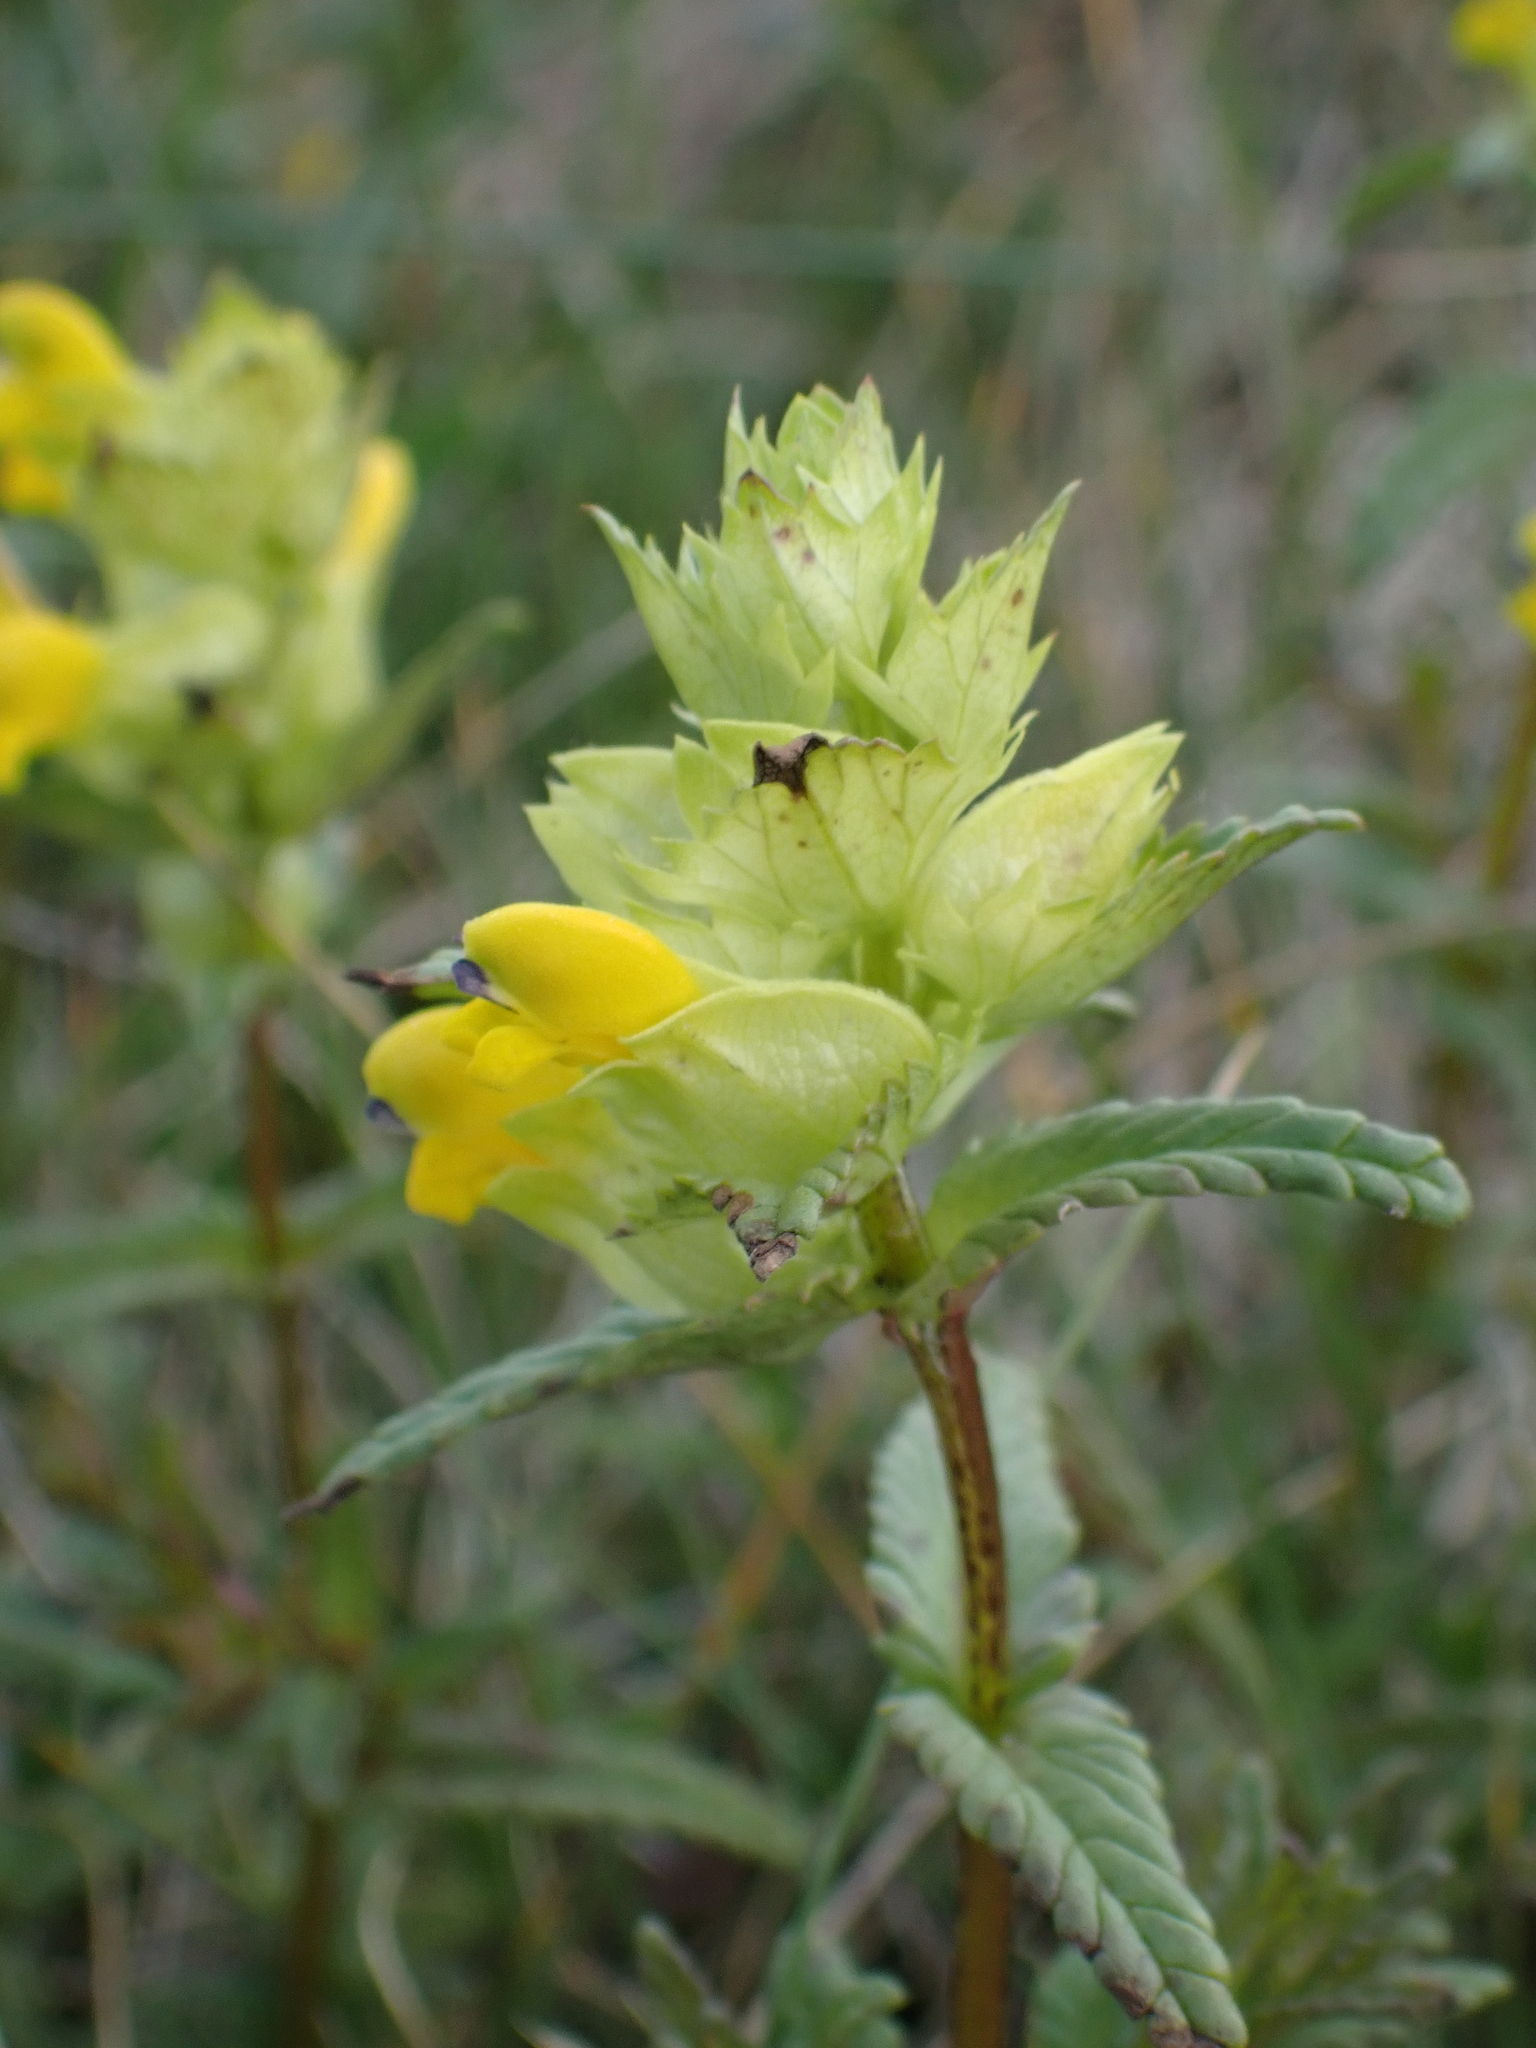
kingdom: Plantae
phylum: Tracheophyta
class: Magnoliopsida
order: Lamiales
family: Orobanchaceae
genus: Rhinanthus
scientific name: Rhinanthus minor
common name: Yellow-rattle
